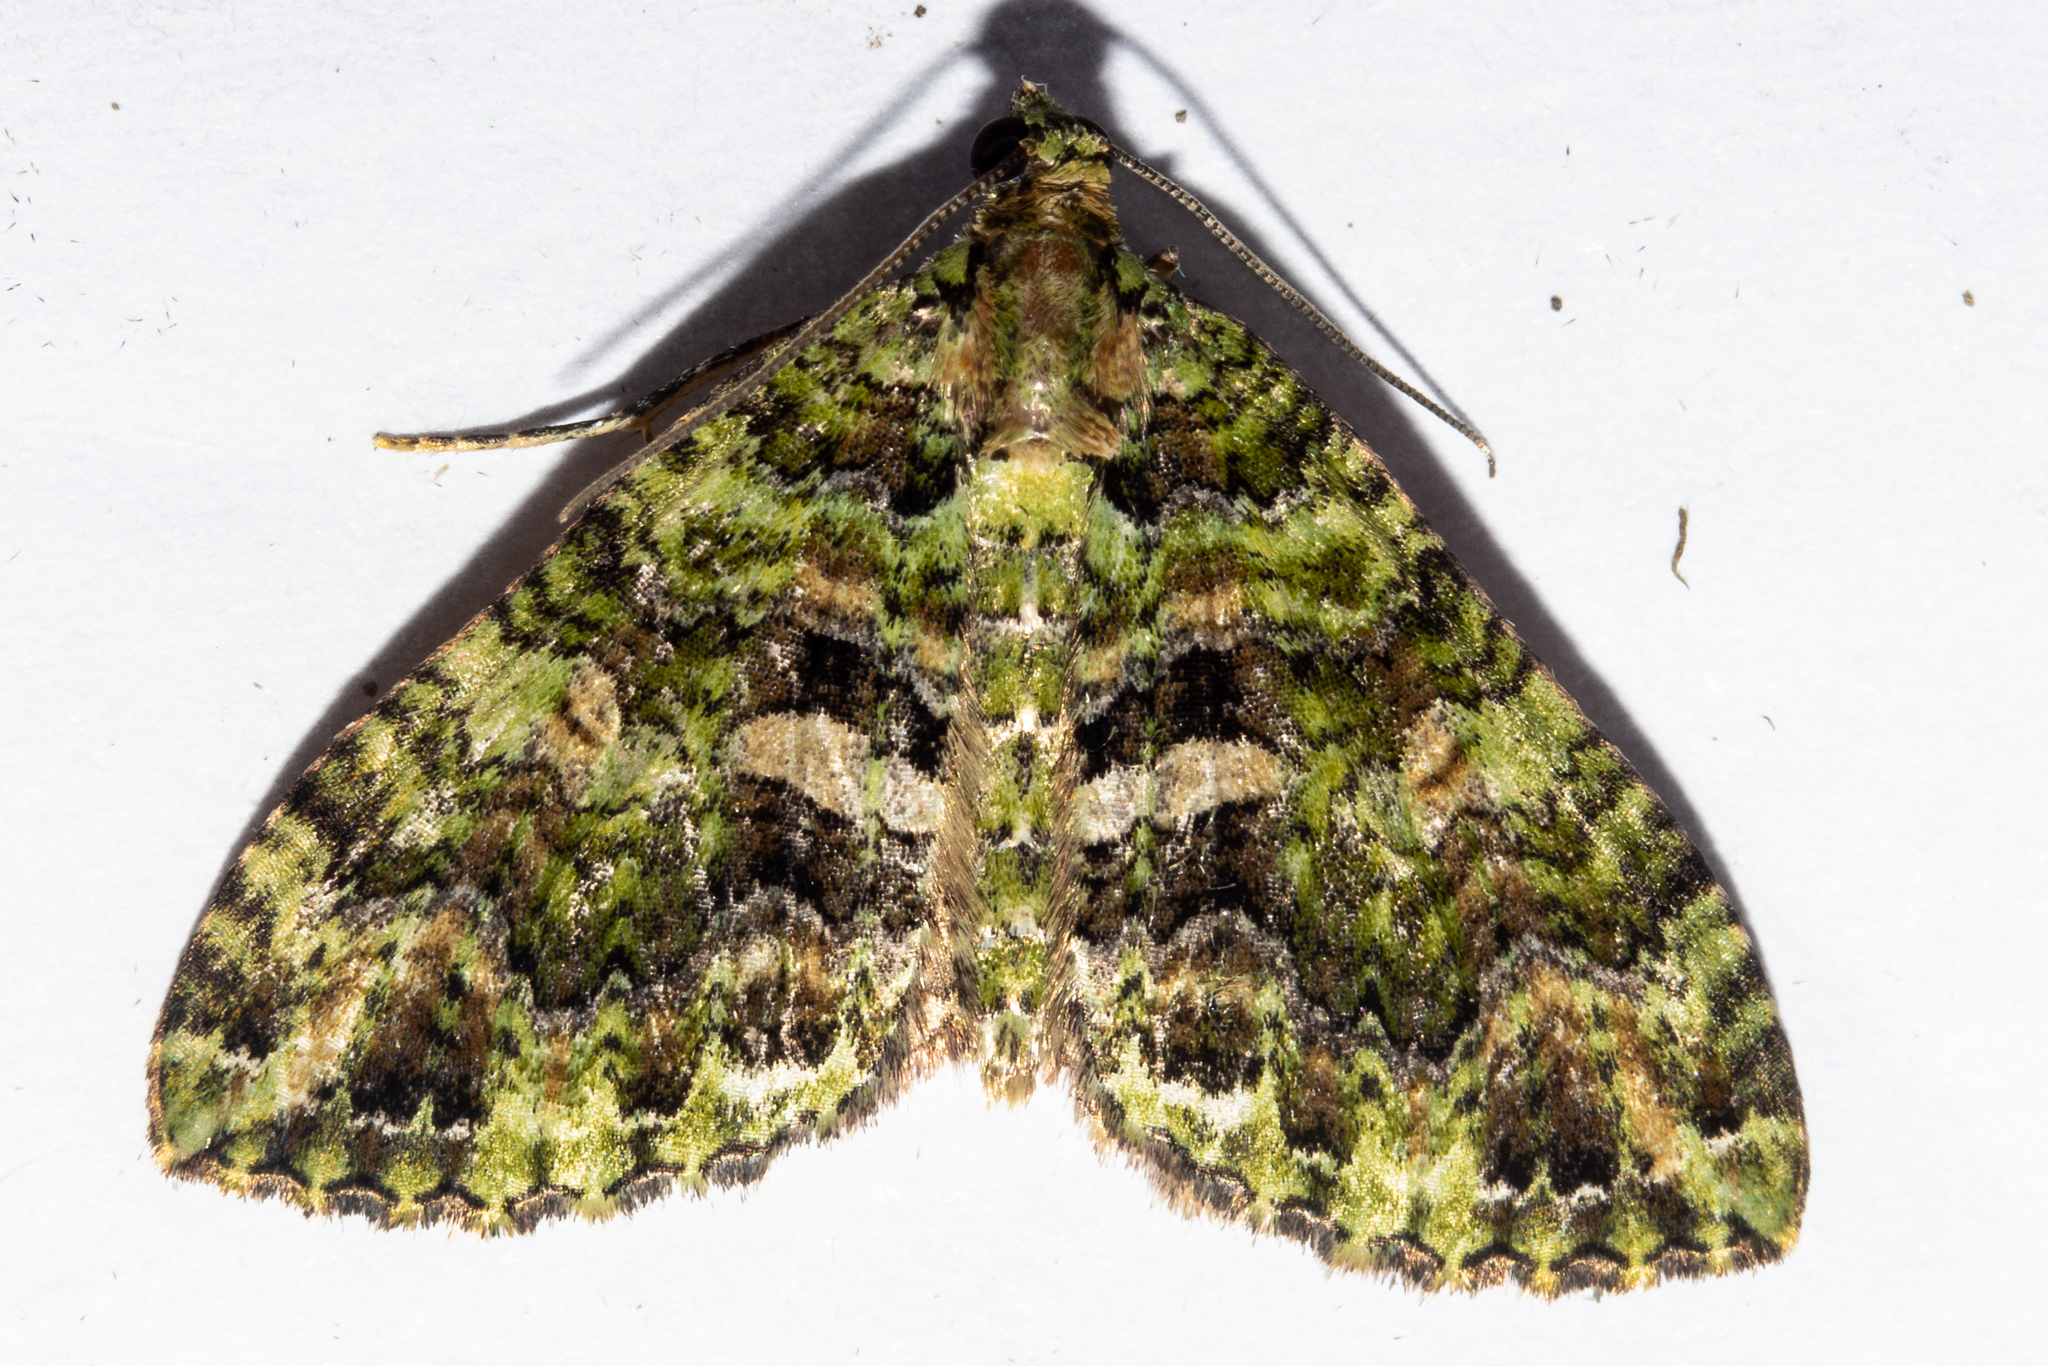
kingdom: Animalia
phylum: Arthropoda
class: Insecta
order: Lepidoptera
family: Geometridae
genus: Austrocidaria
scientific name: Austrocidaria similata
